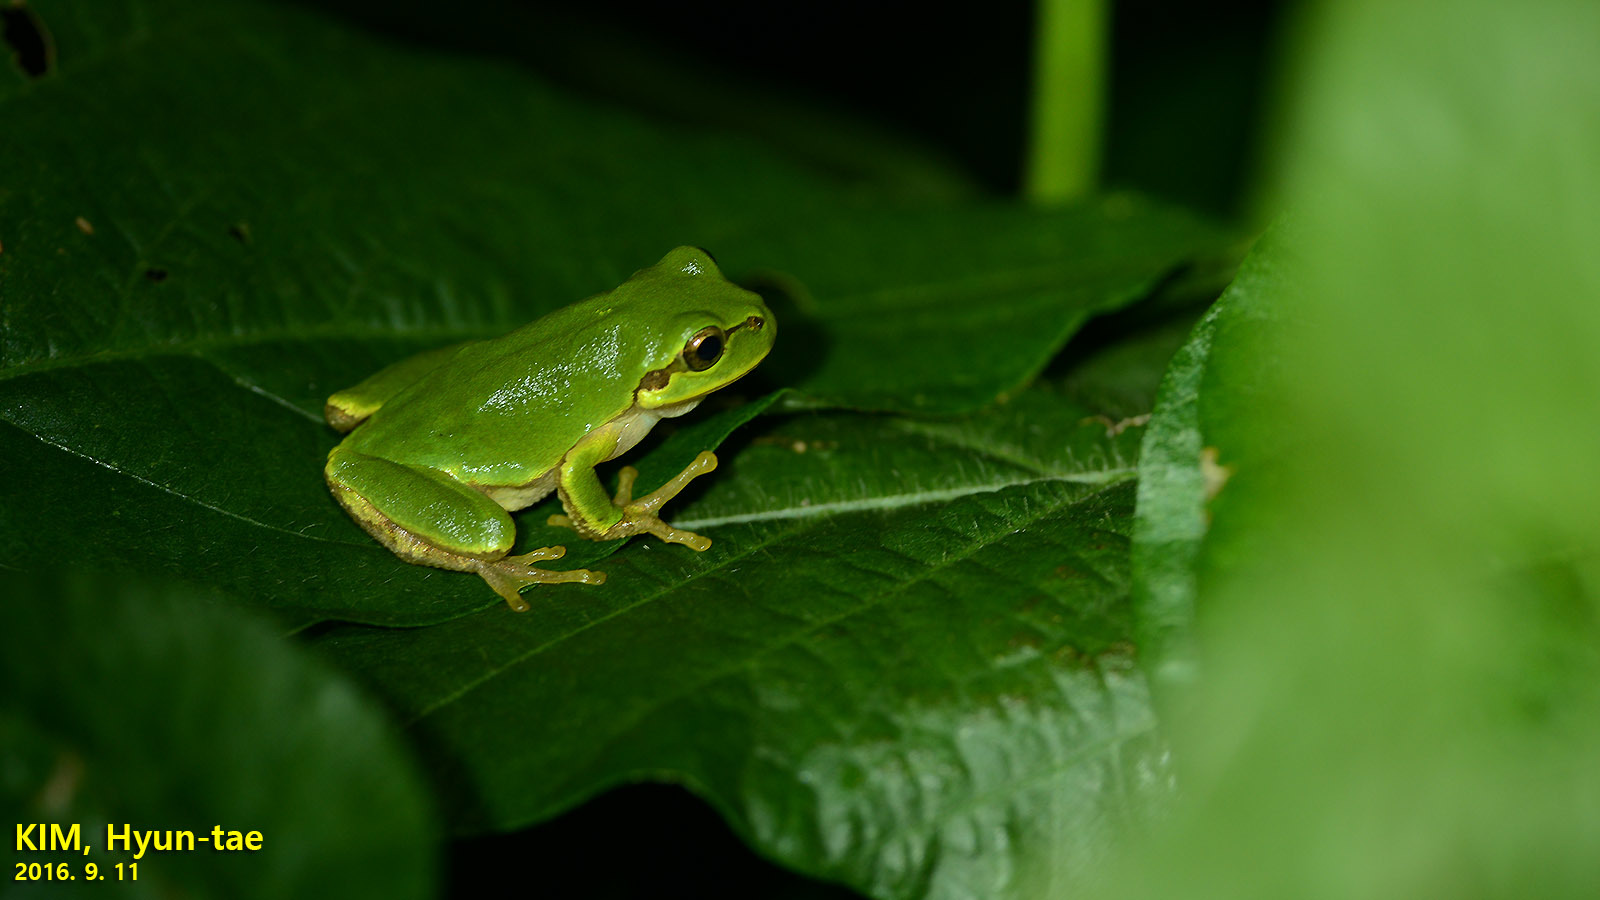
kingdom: Animalia
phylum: Chordata
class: Amphibia
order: Anura
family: Hylidae
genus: Dryophytes
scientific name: Dryophytes japonicus
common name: Japanese treefrog
